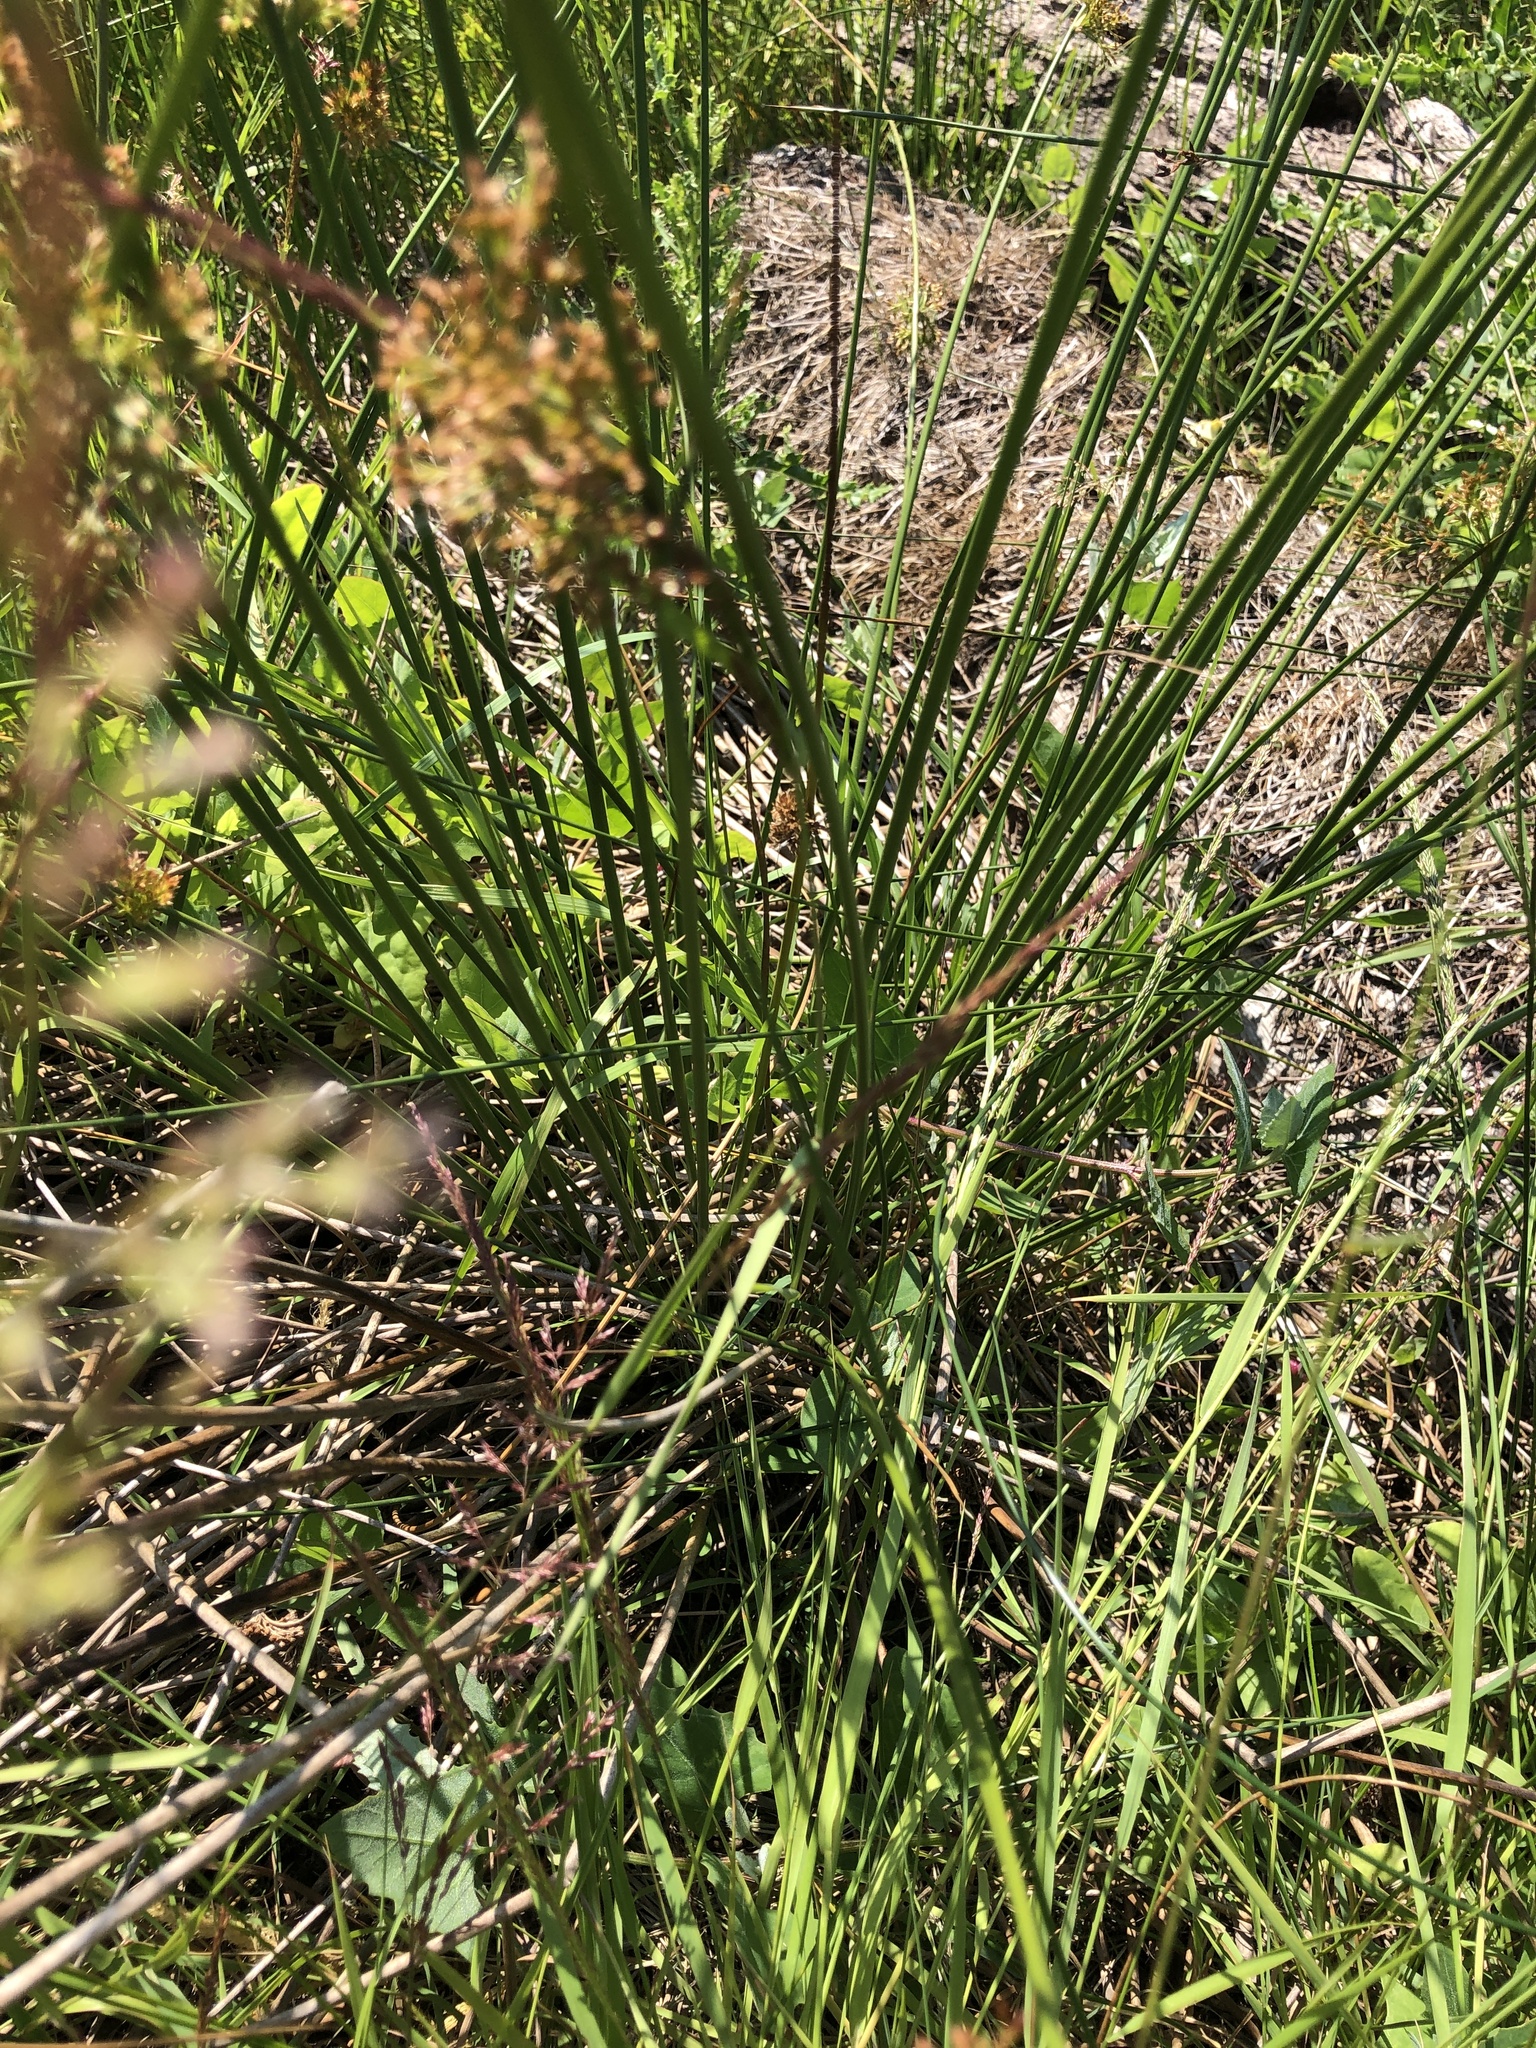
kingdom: Plantae
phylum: Tracheophyta
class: Liliopsida
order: Poales
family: Juncaceae
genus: Juncus
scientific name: Juncus effusus
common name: Soft rush
